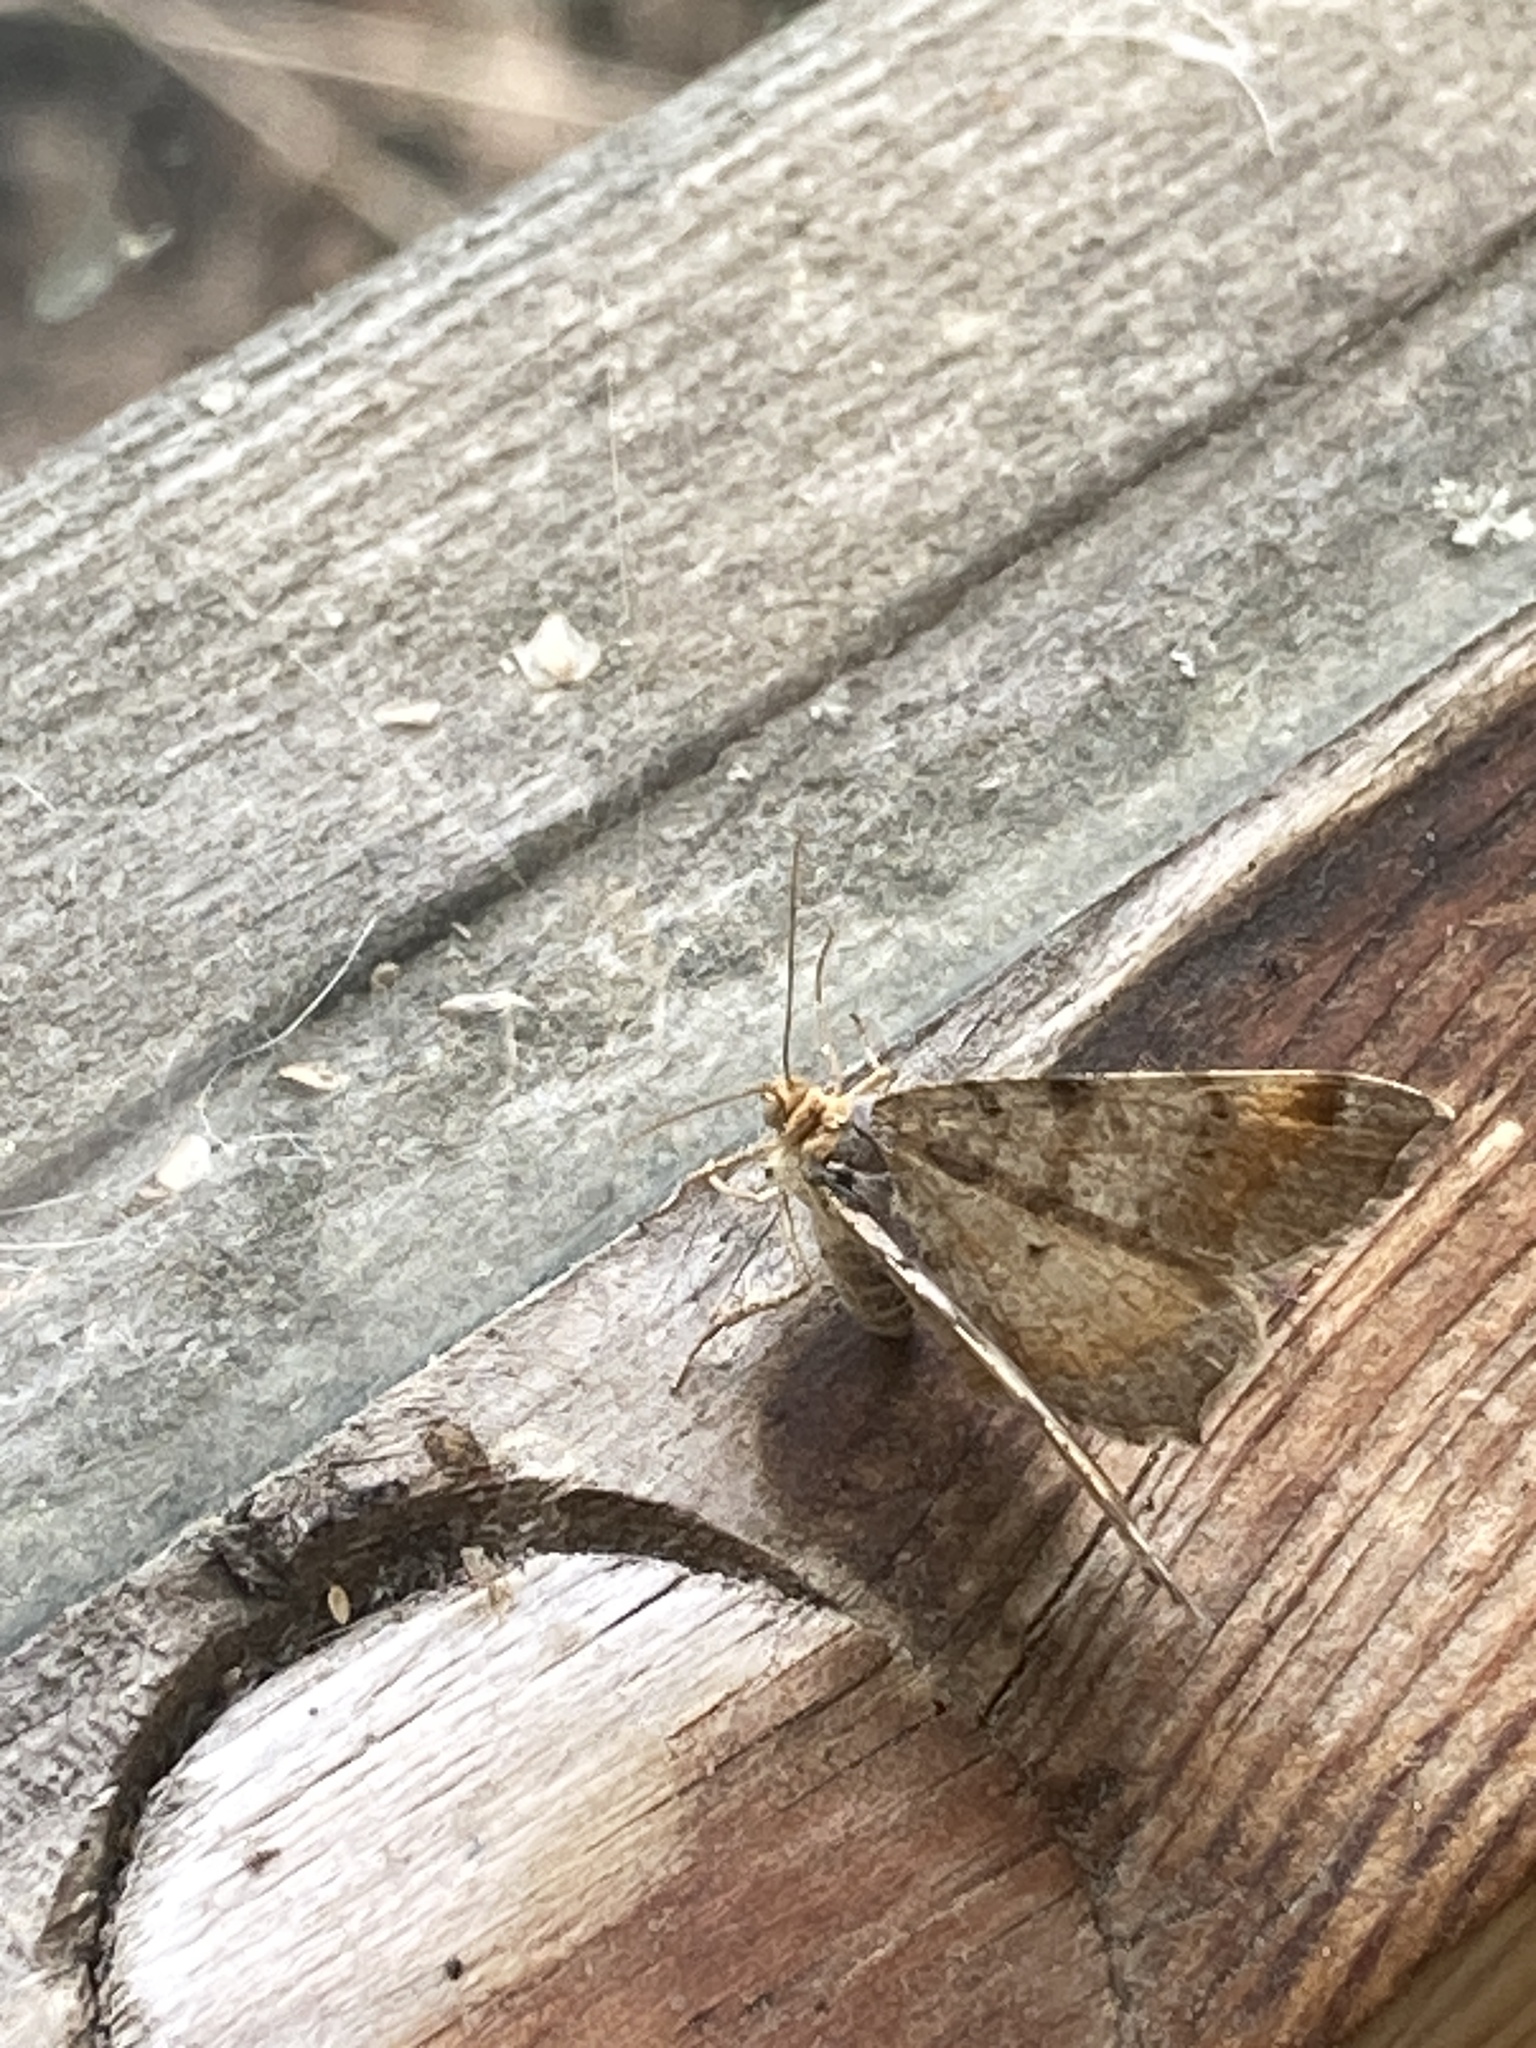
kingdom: Animalia
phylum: Arthropoda
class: Insecta
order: Lepidoptera
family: Geometridae
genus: Macaria
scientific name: Macaria liturata
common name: Tawny-barred angle
